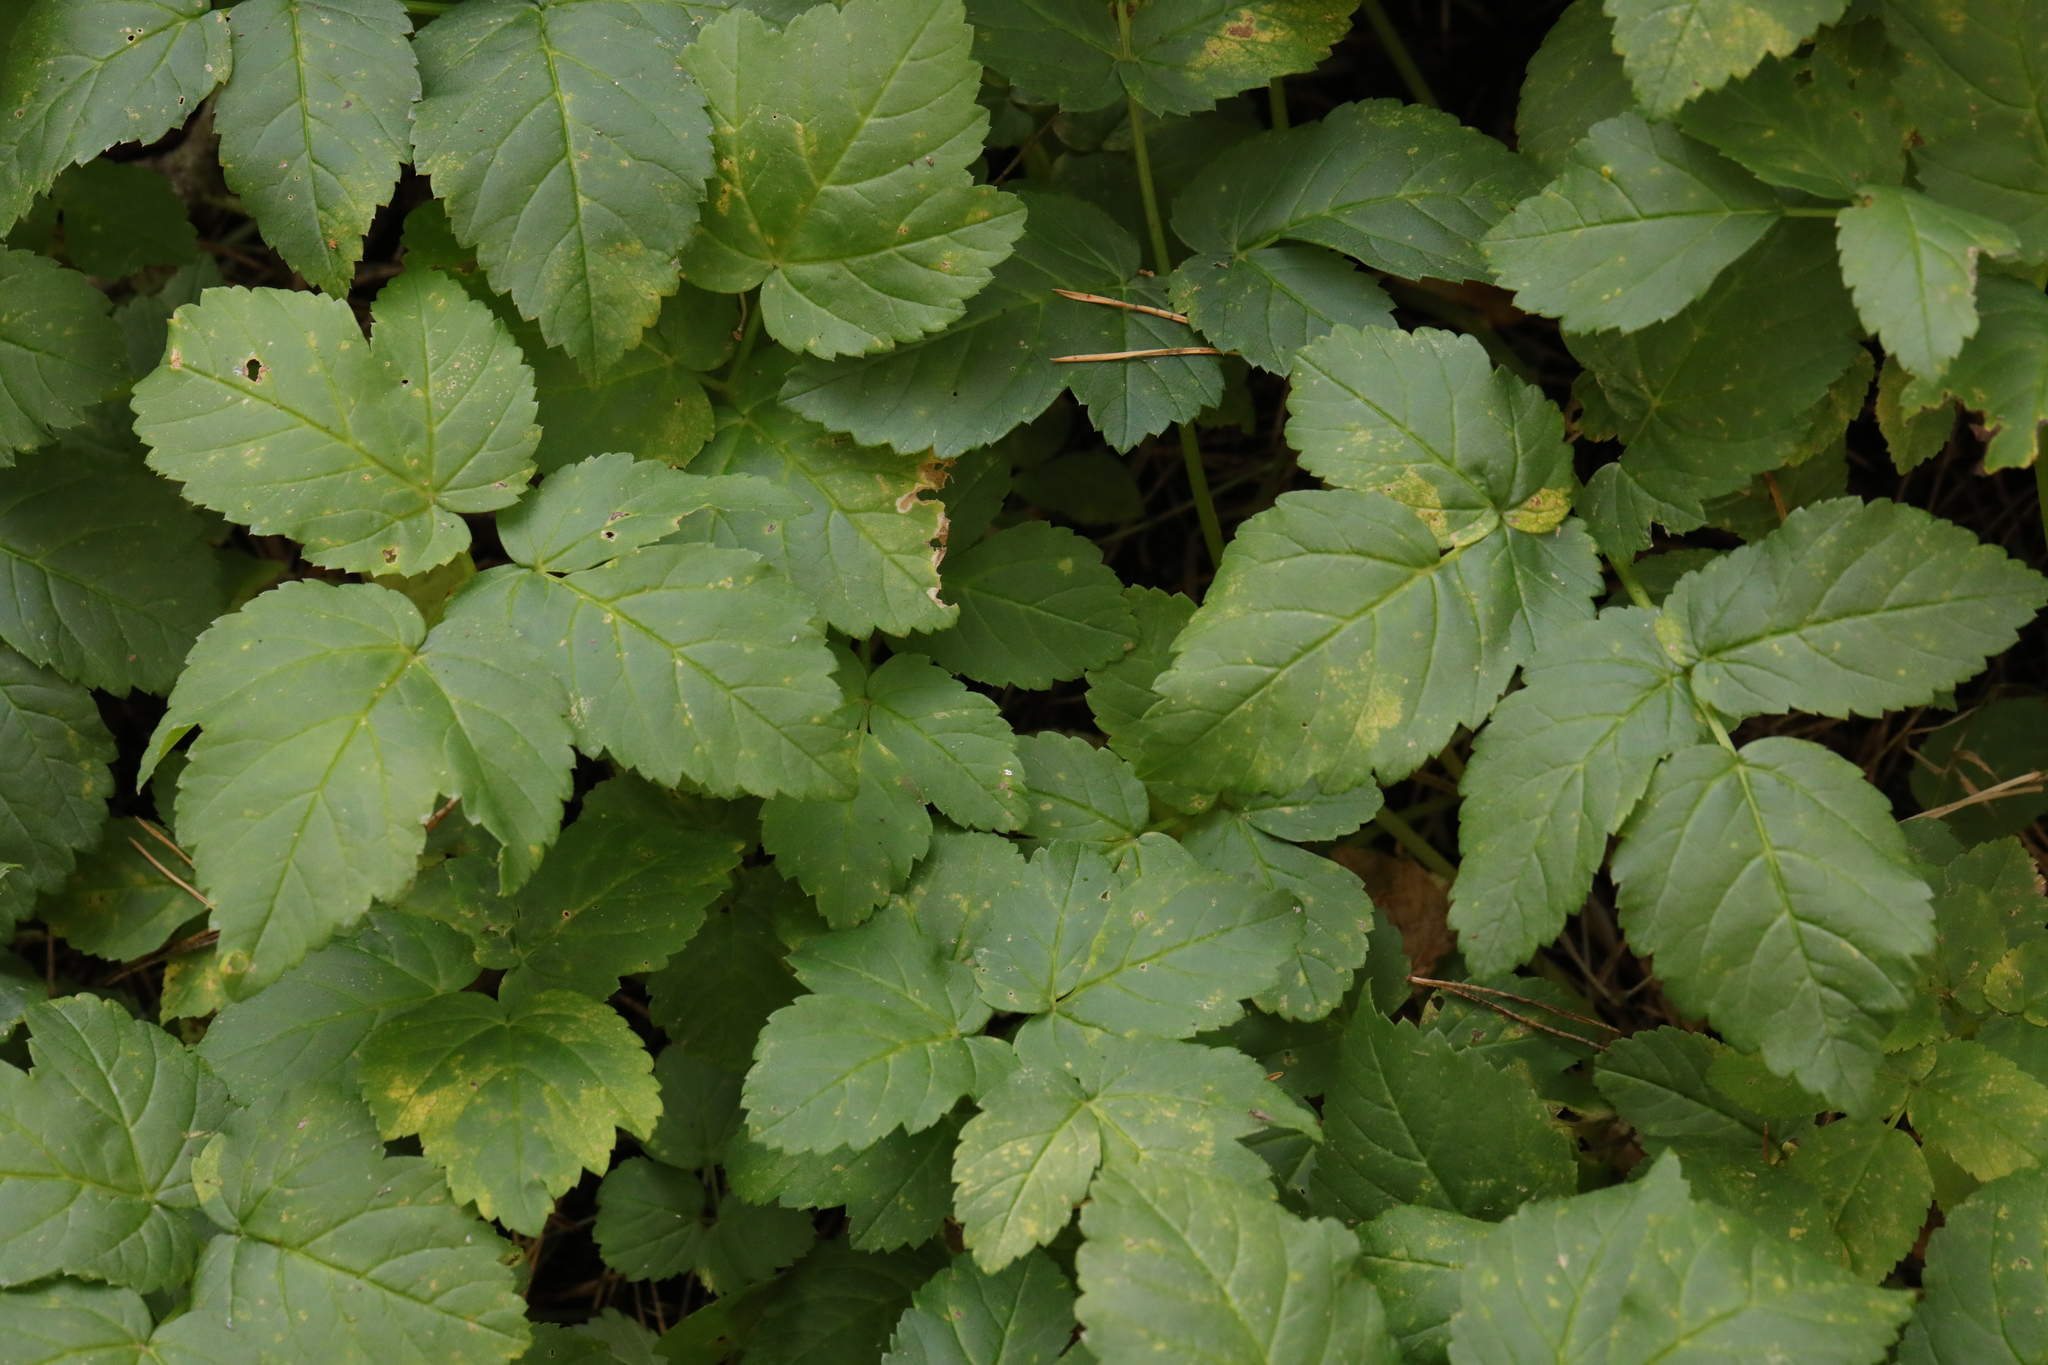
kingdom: Plantae
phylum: Tracheophyta
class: Magnoliopsida
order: Apiales
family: Apiaceae
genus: Aegopodium
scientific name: Aegopodium podagraria
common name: Ground-elder
